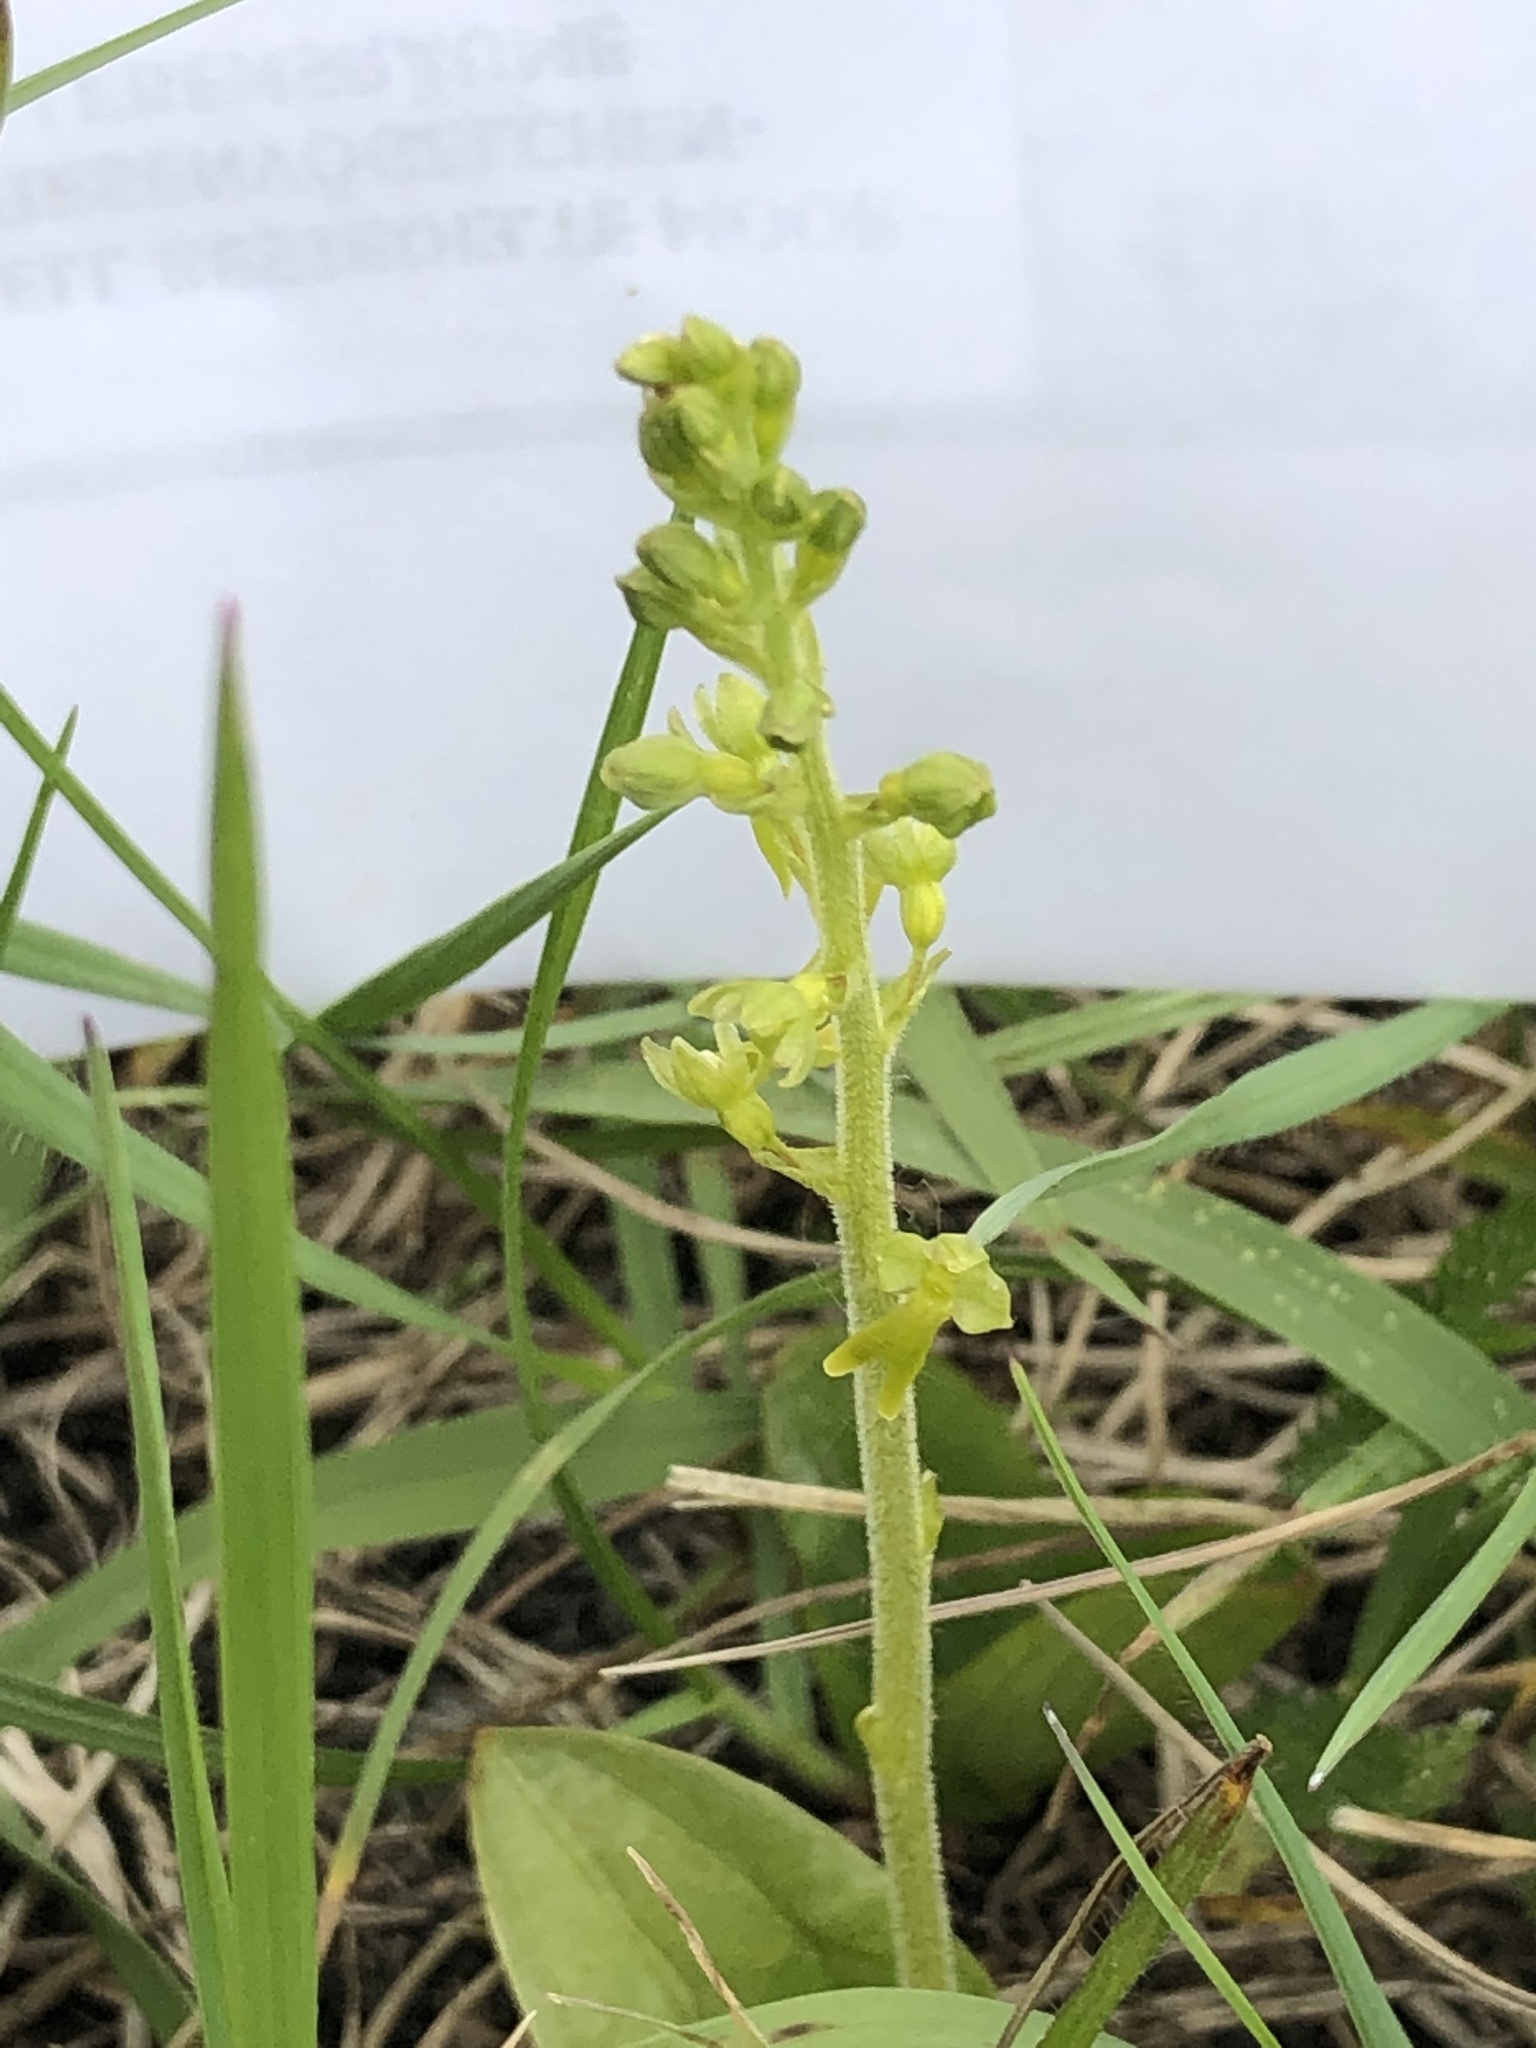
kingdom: Plantae
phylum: Tracheophyta
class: Liliopsida
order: Asparagales
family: Orchidaceae
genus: Neottia
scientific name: Neottia ovata
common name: Common twayblade
